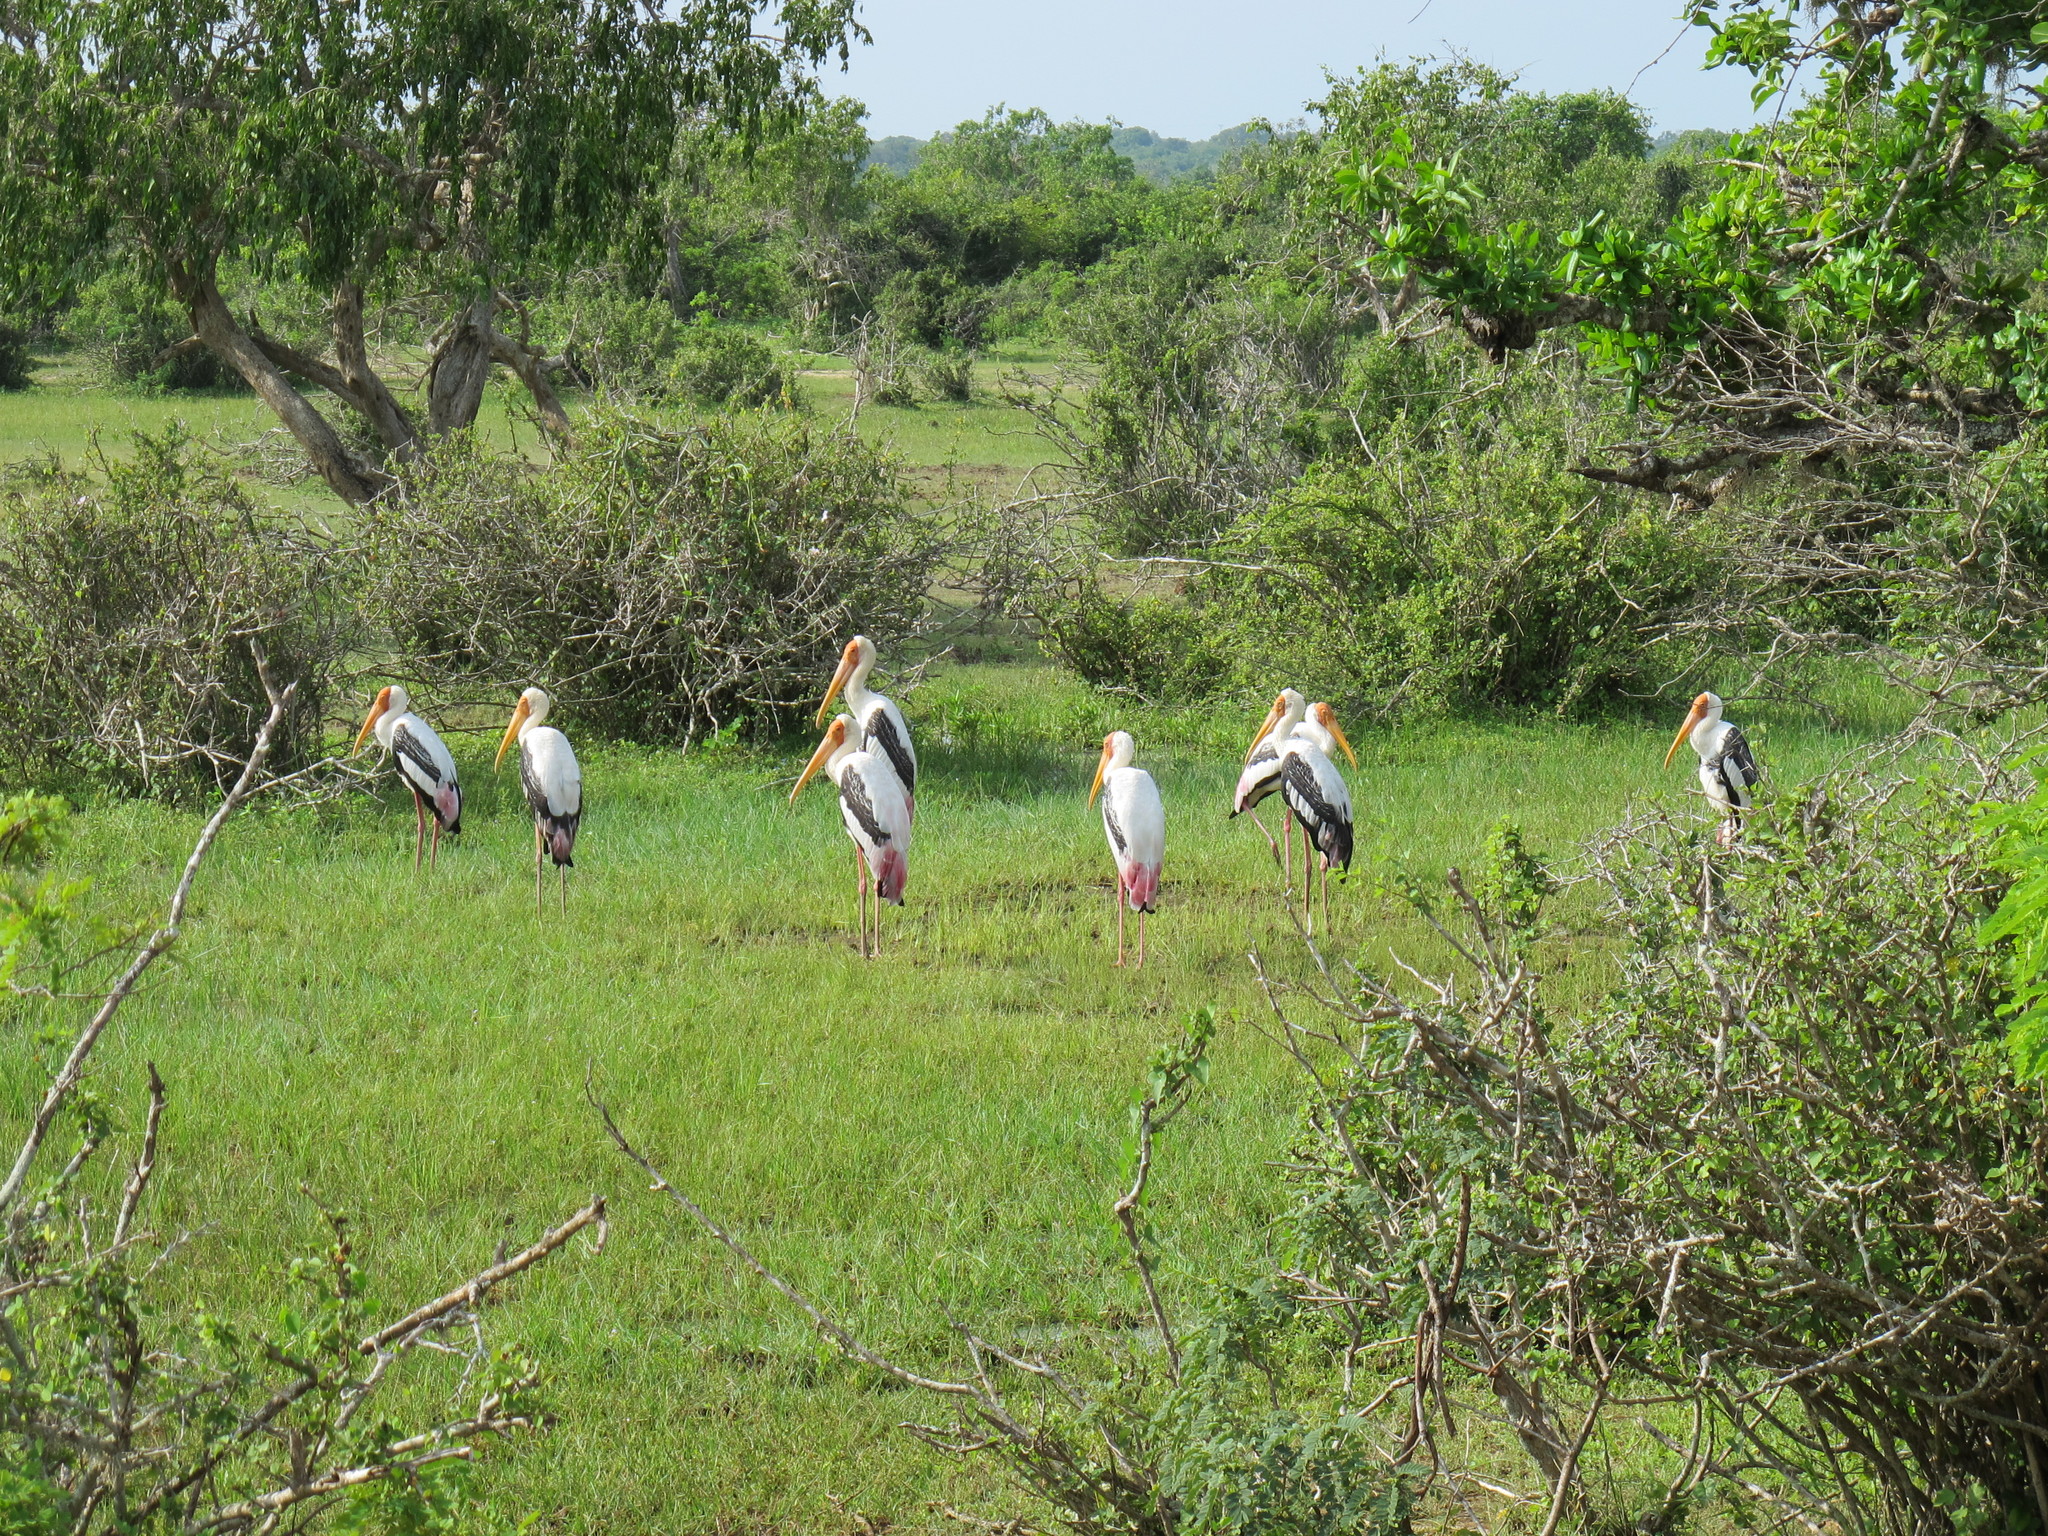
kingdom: Animalia
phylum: Chordata
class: Aves
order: Ciconiiformes
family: Ciconiidae
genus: Mycteria
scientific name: Mycteria leucocephala
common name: Painted stork
